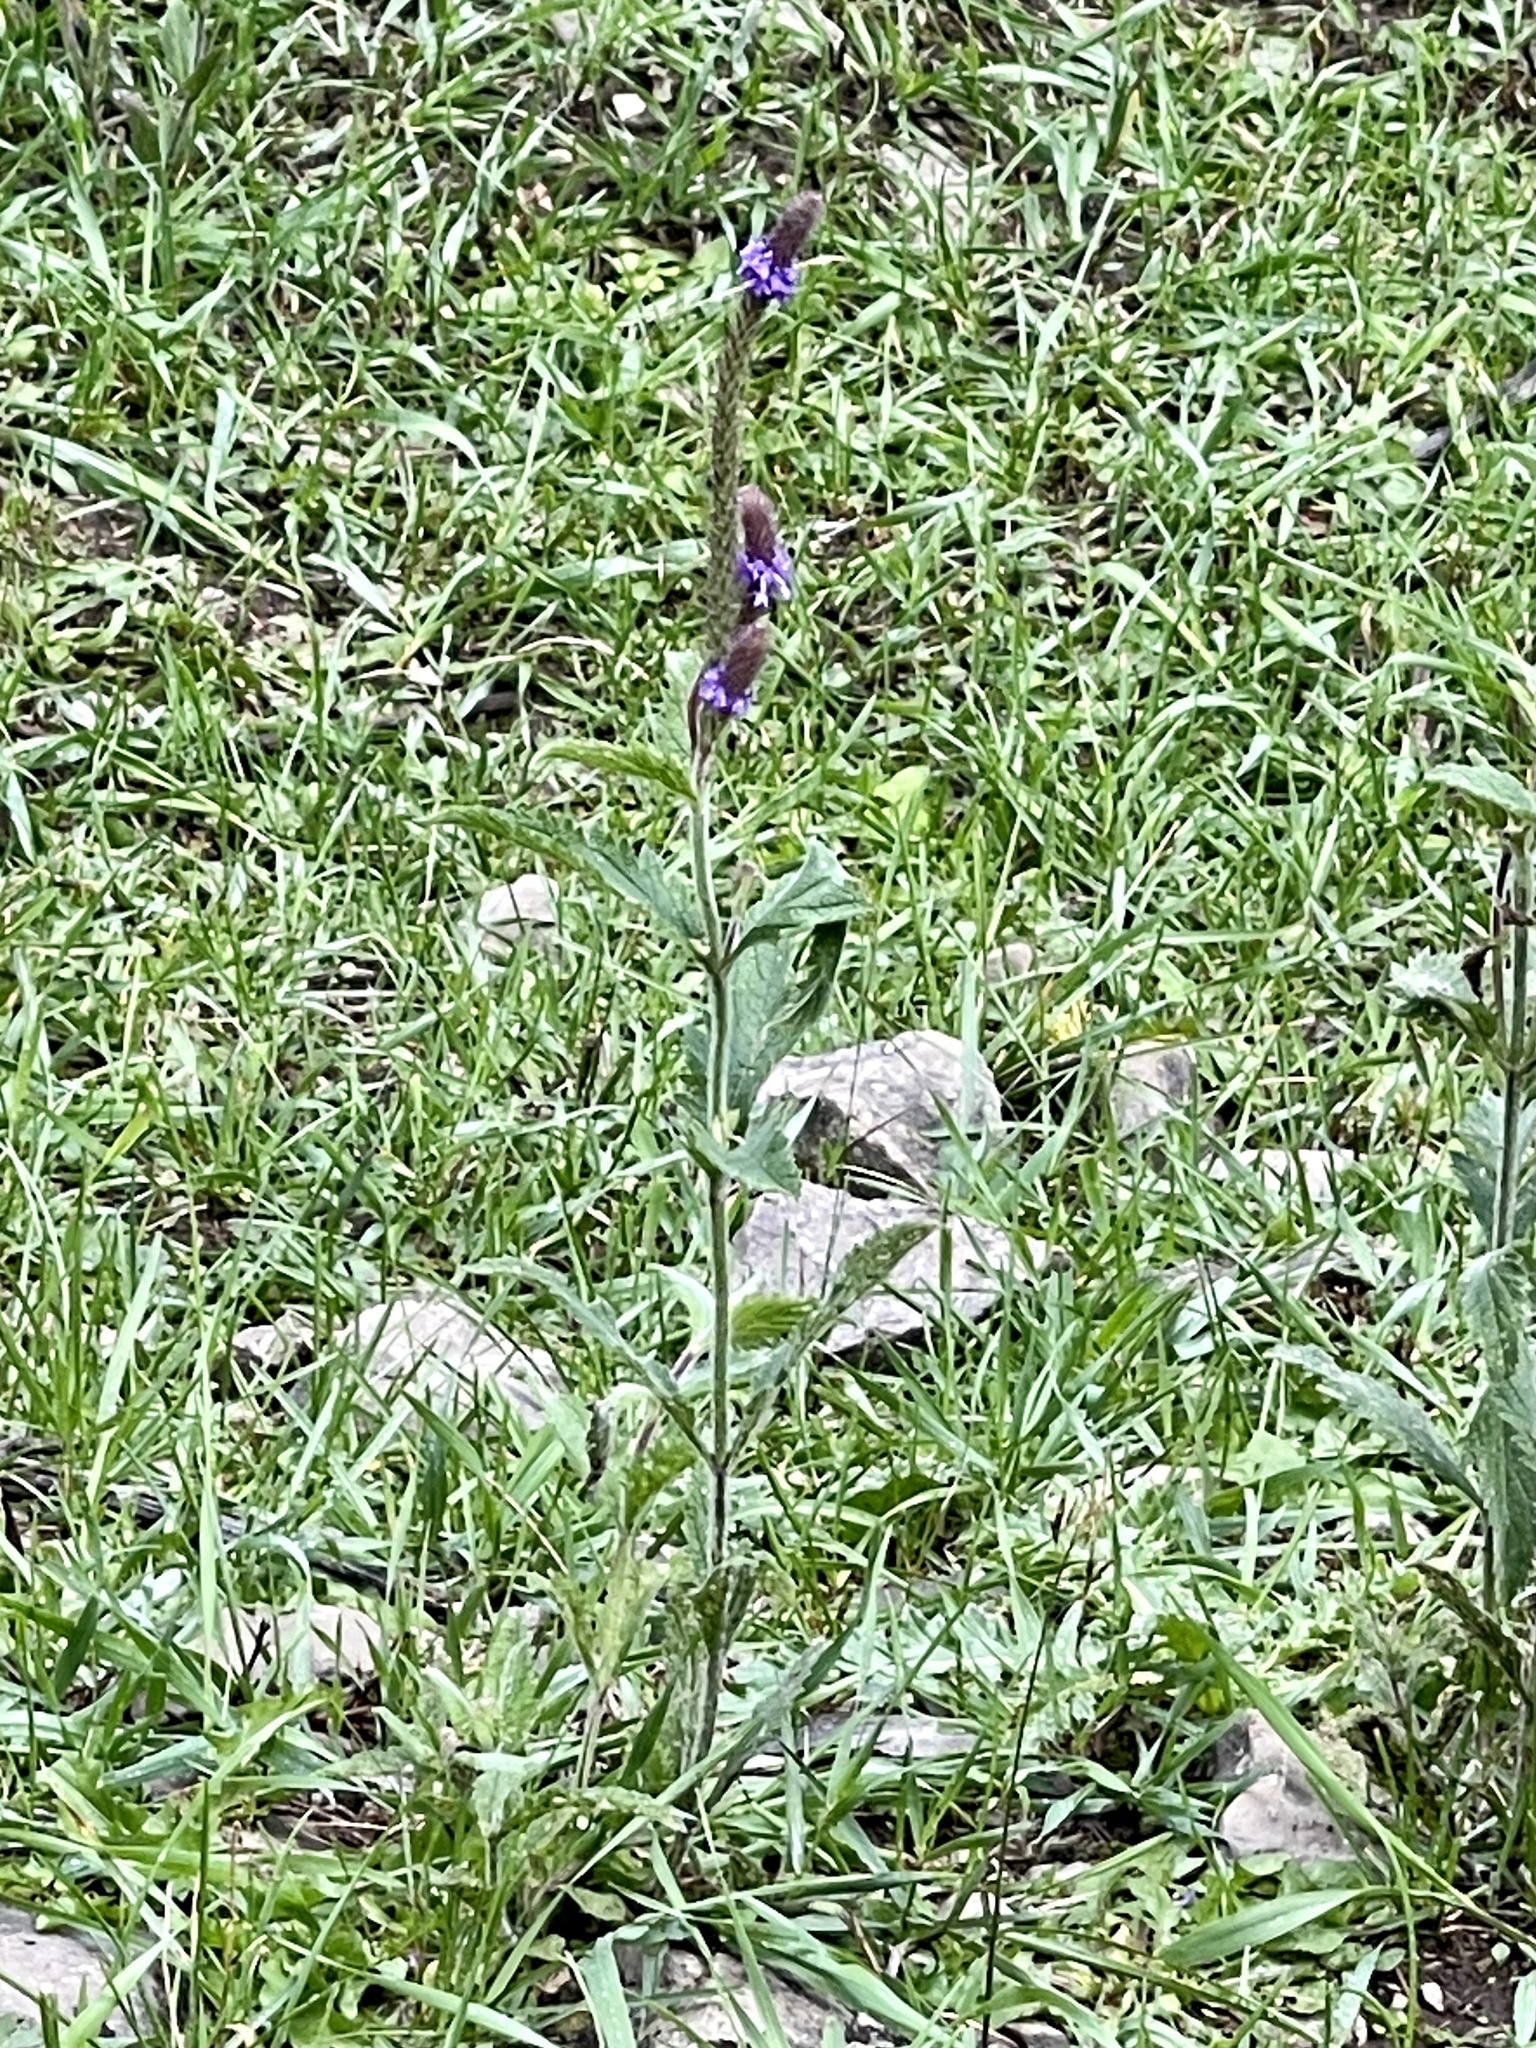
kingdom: Plantae
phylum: Tracheophyta
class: Magnoliopsida
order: Lamiales
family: Verbenaceae
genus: Verbena
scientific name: Verbena macdougalii
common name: New mexico vervain
